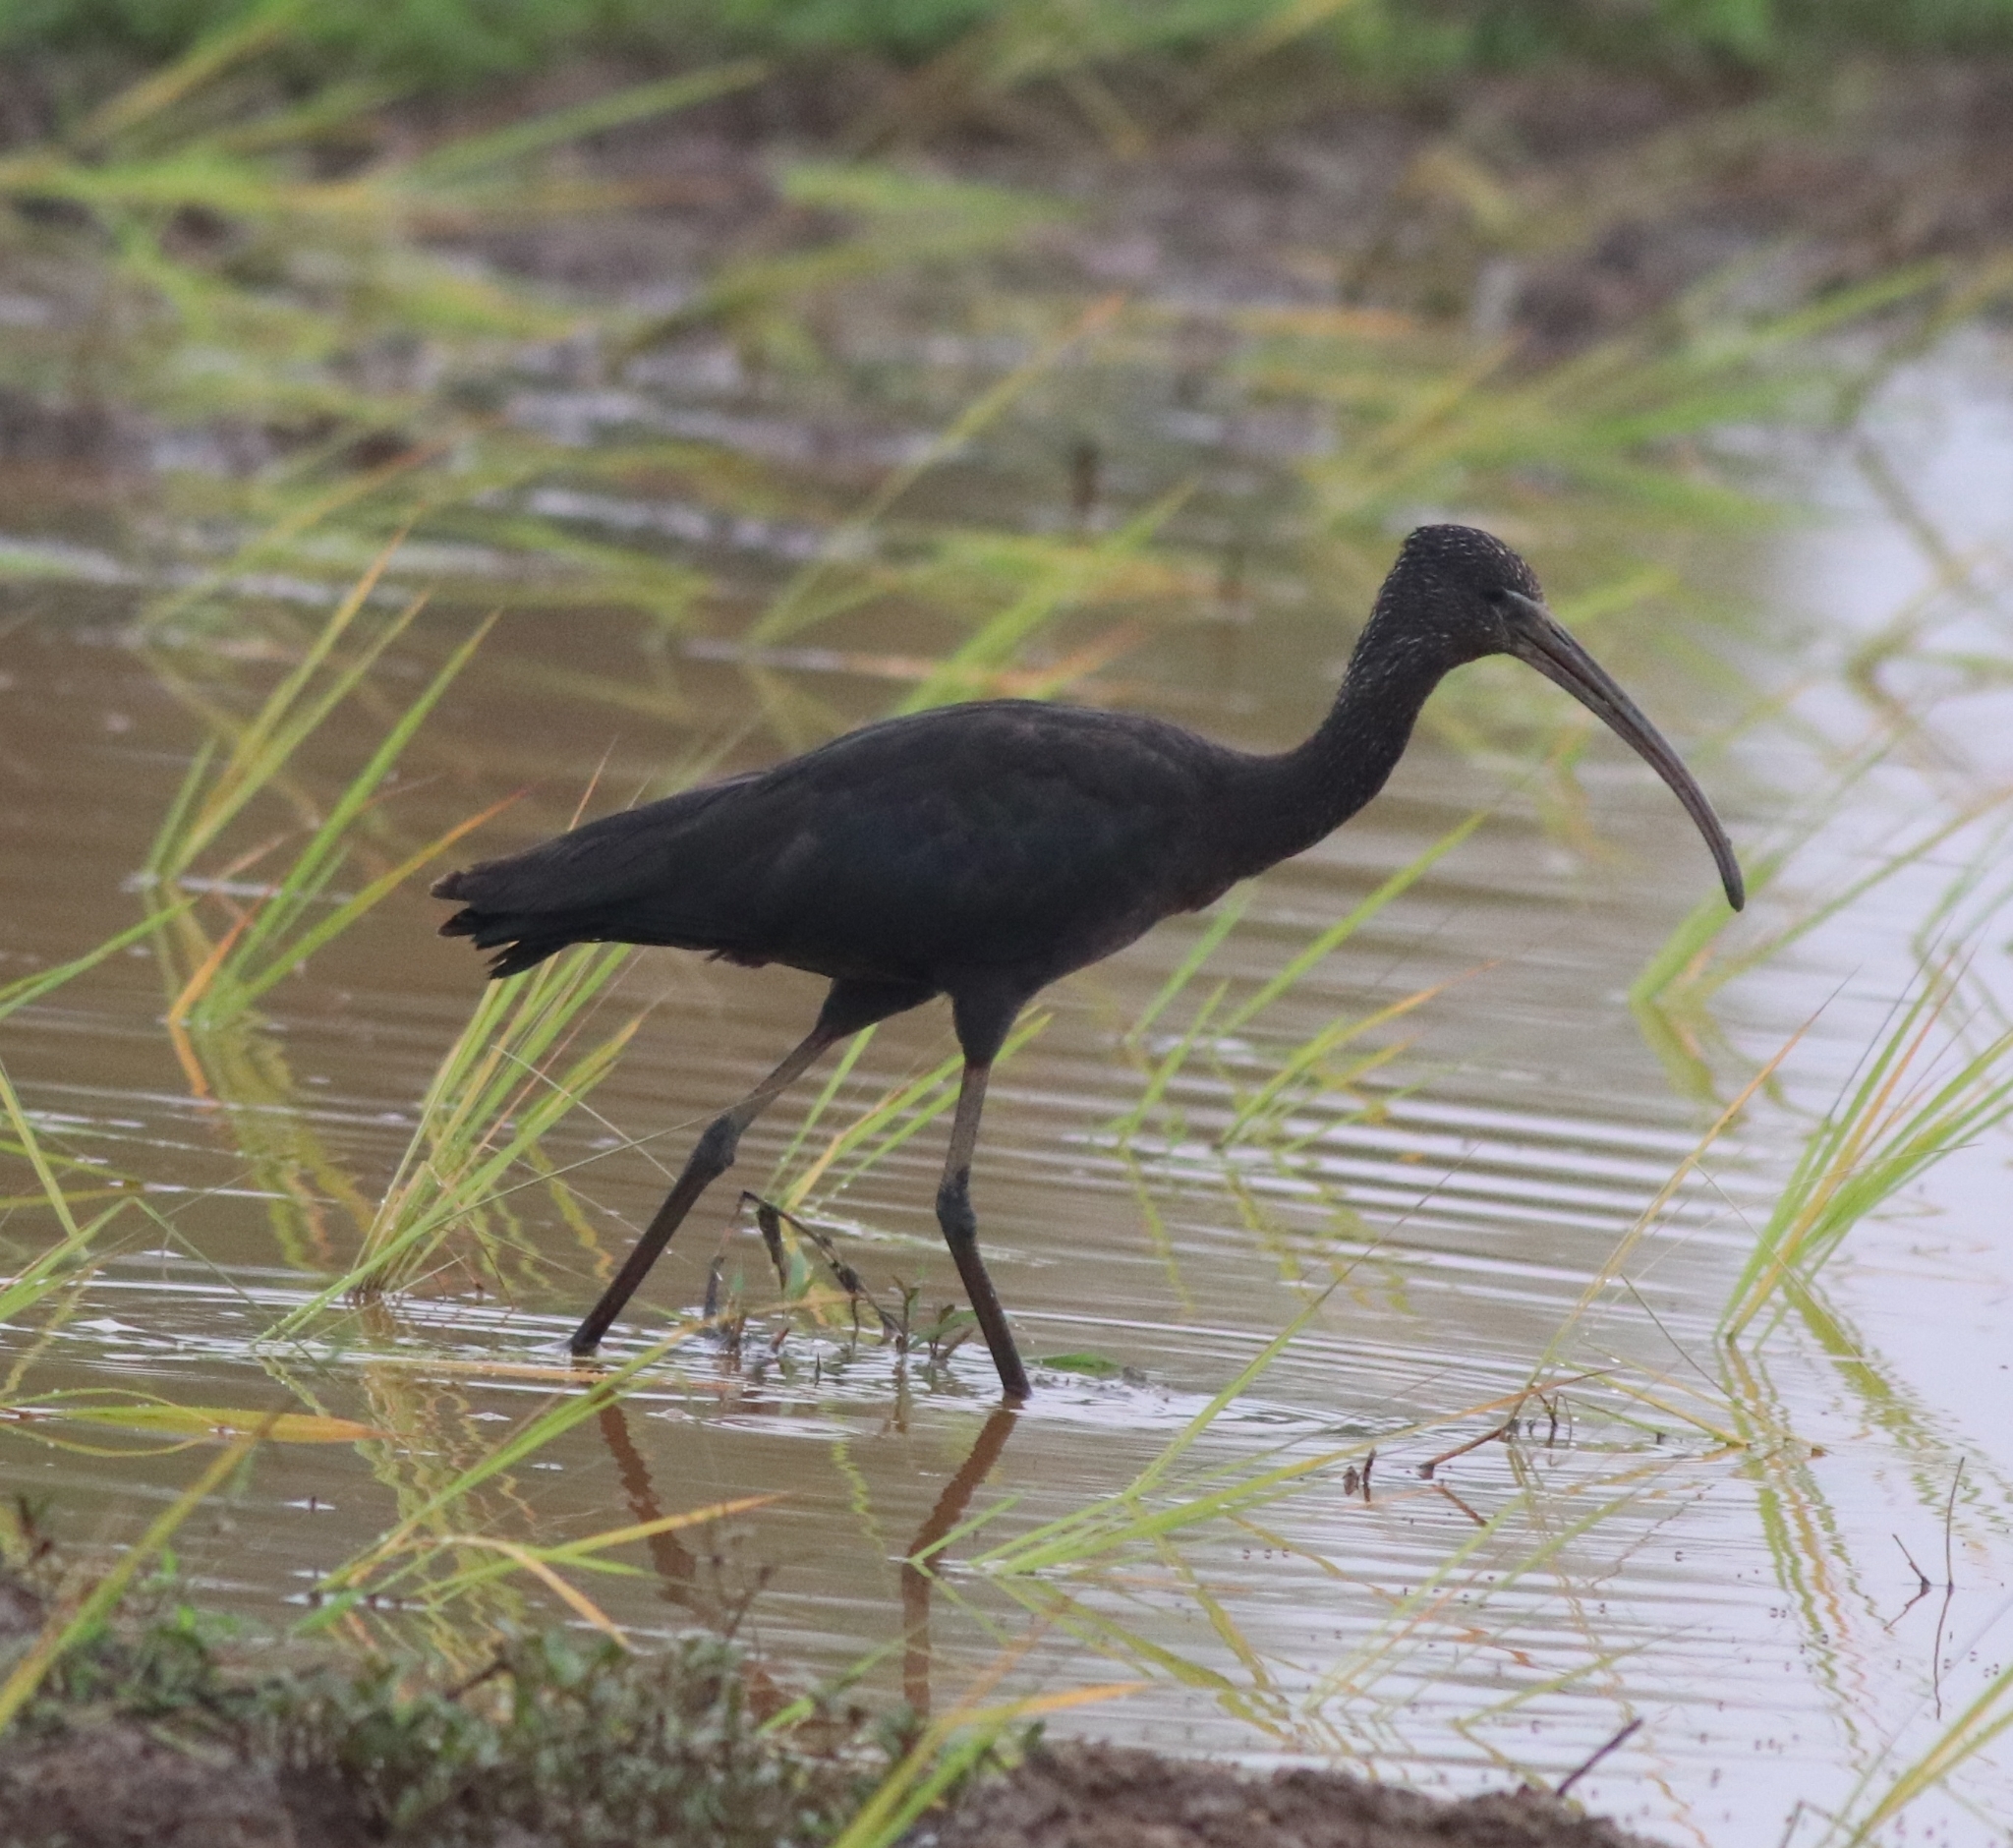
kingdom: Animalia
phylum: Chordata
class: Aves
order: Pelecaniformes
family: Threskiornithidae
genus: Plegadis
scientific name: Plegadis falcinellus
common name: Glossy ibis
